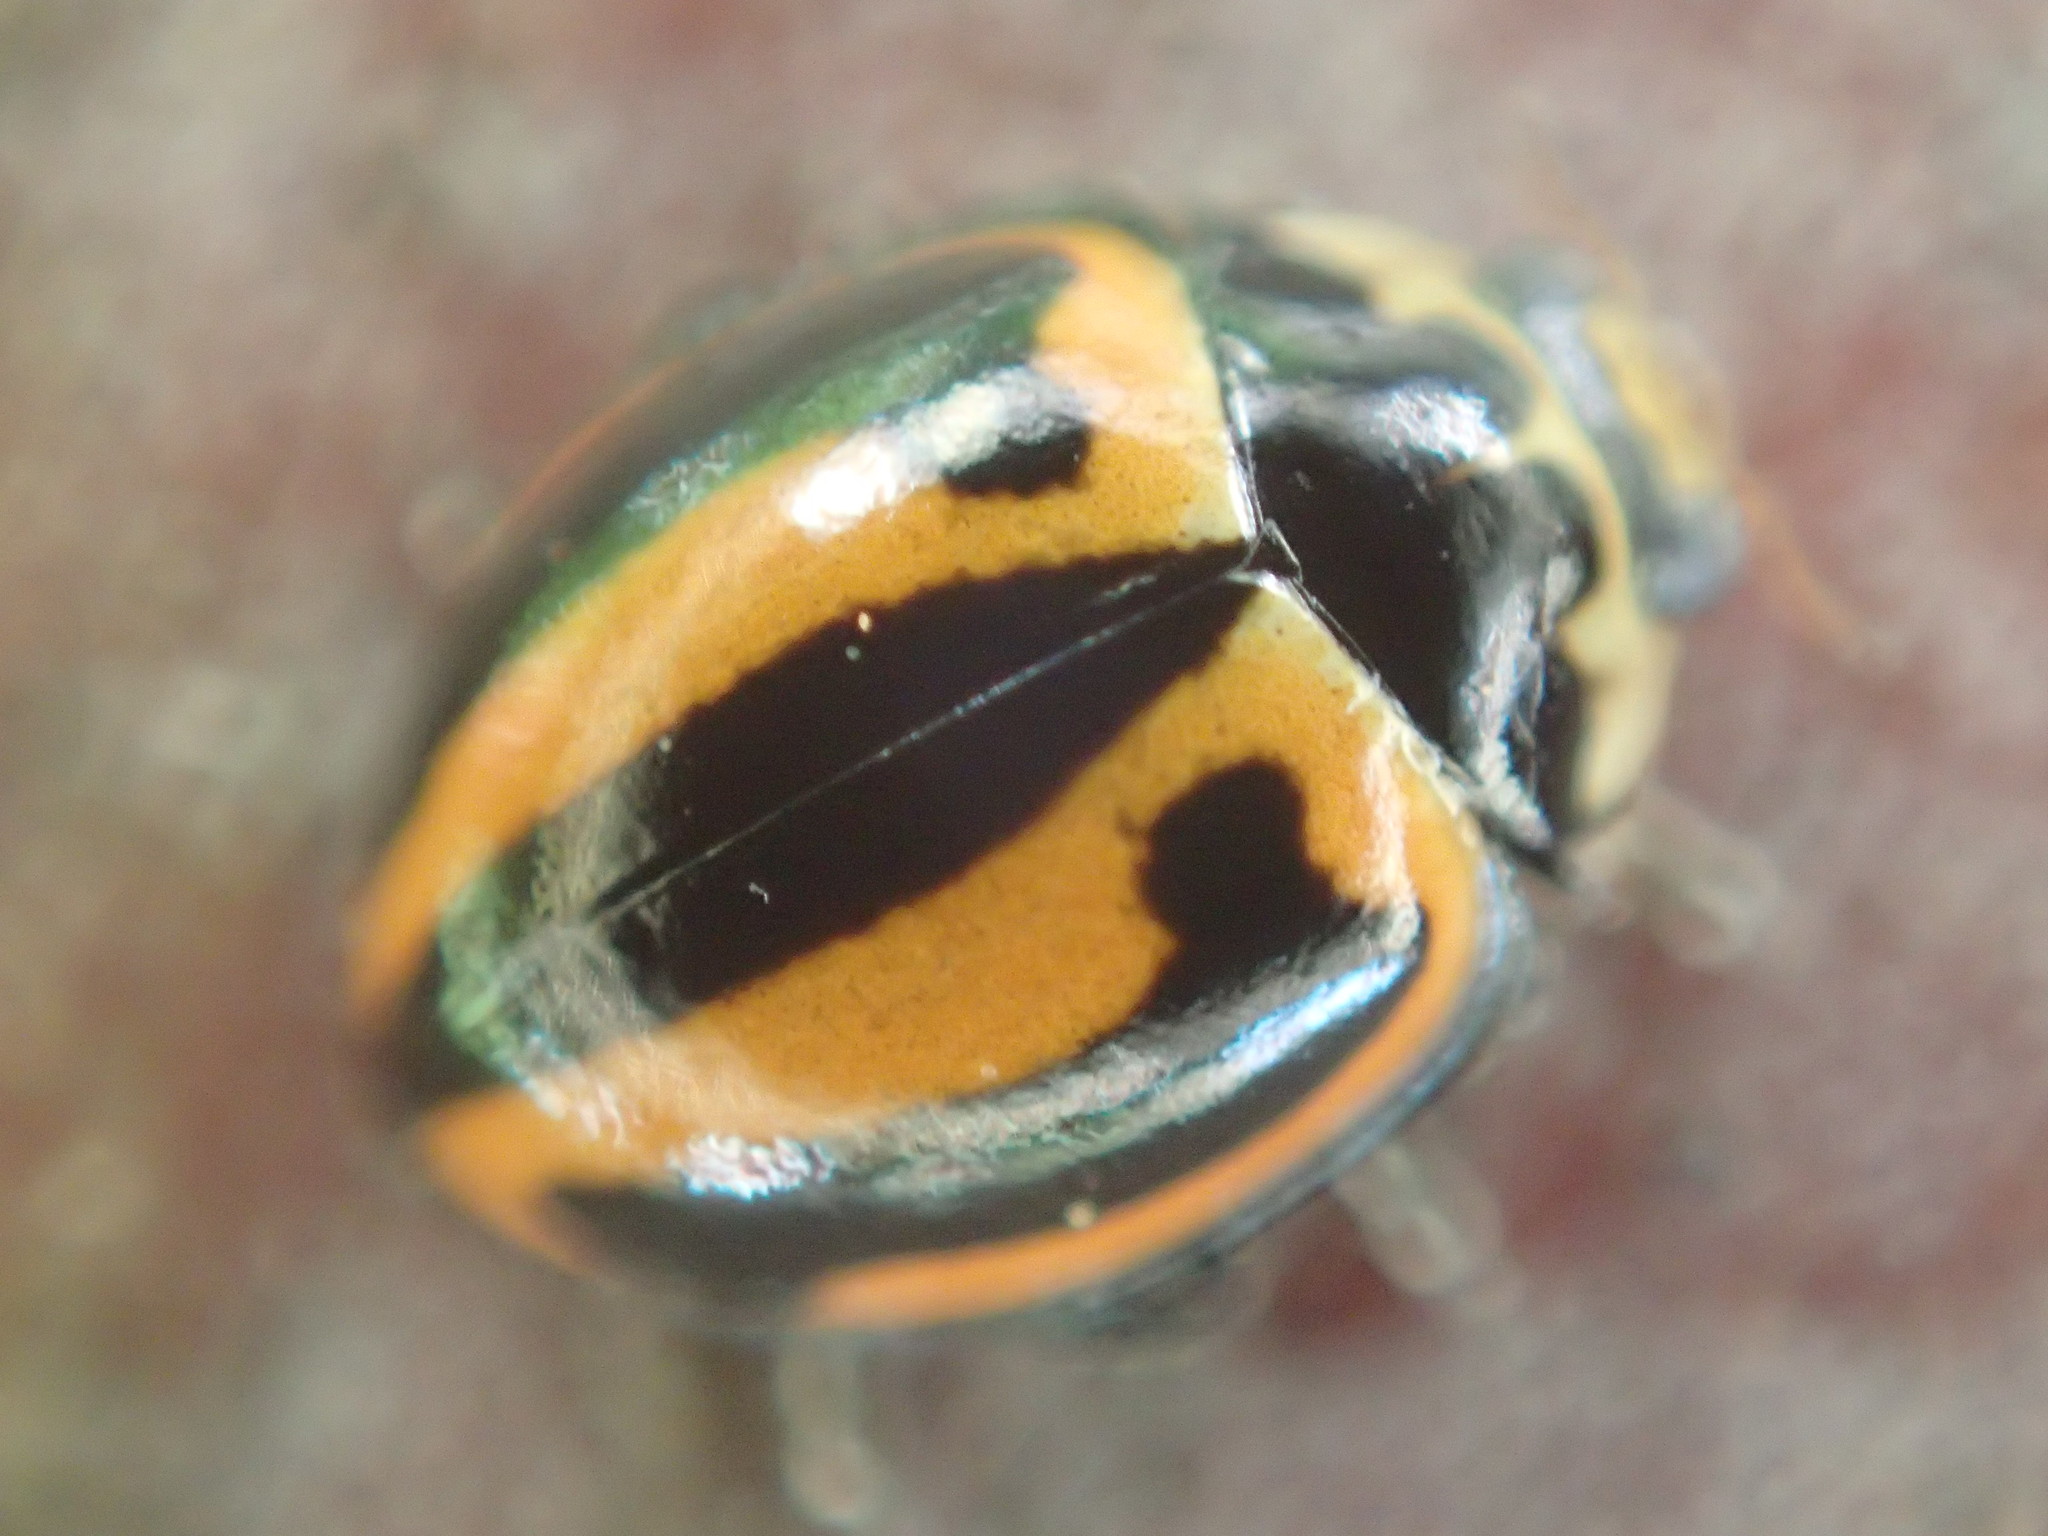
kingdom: Animalia
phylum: Arthropoda
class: Insecta
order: Coleoptera
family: Coccinellidae
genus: Micraspis
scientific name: Micraspis frenata
